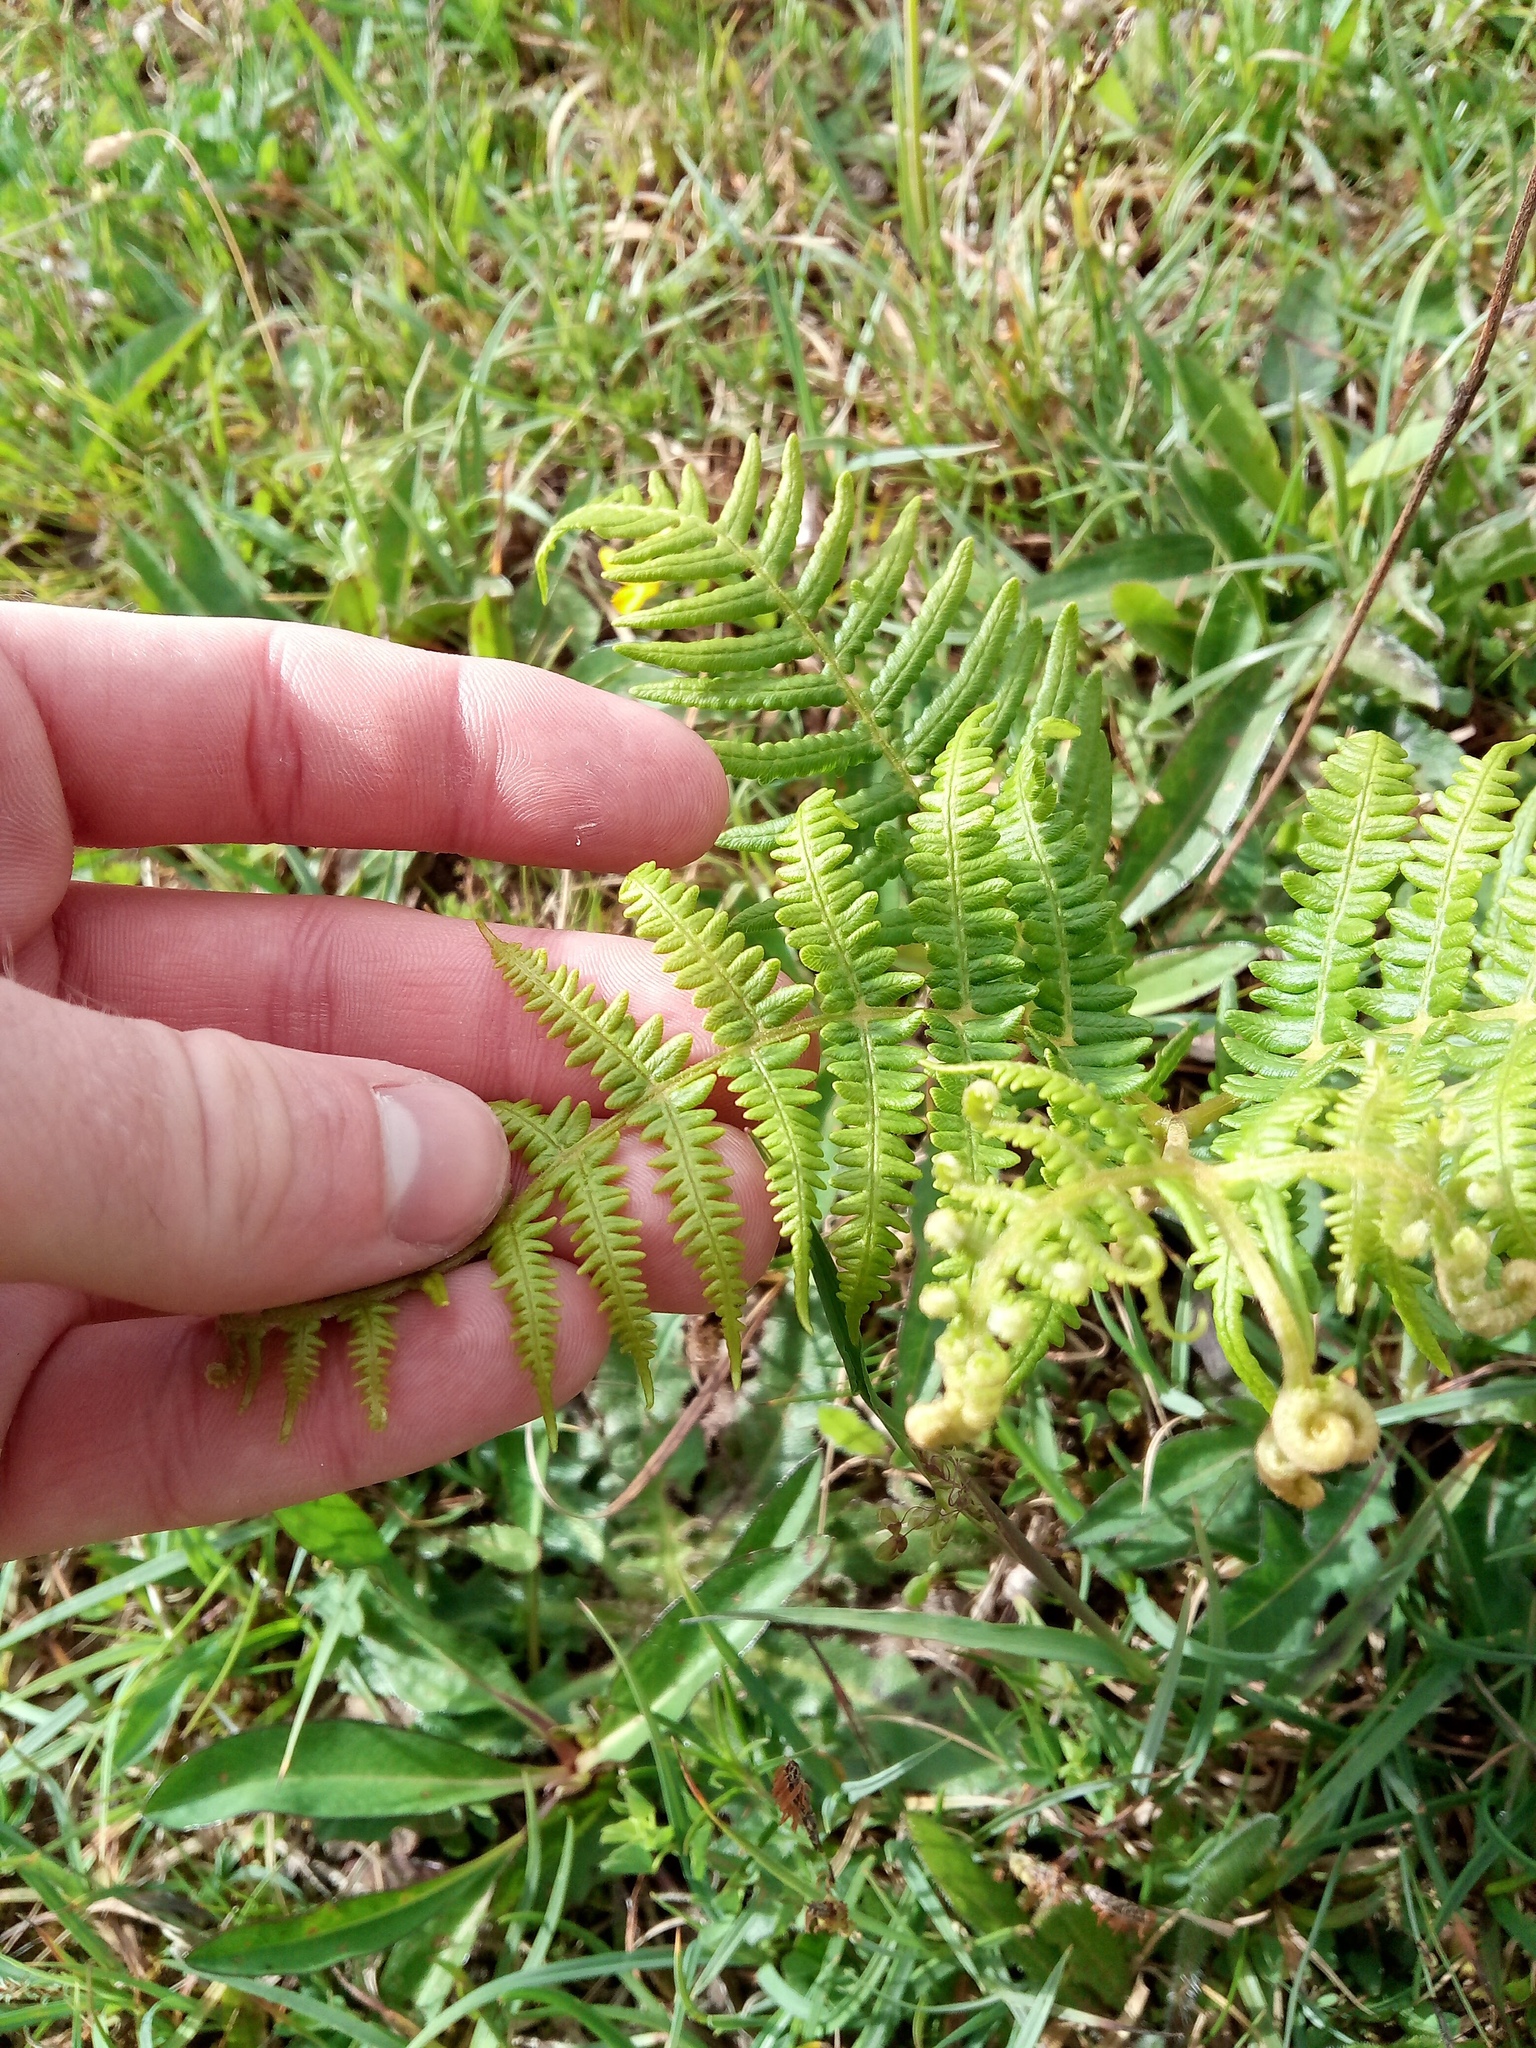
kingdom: Plantae
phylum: Tracheophyta
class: Polypodiopsida
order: Polypodiales
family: Dennstaedtiaceae
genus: Pteridium
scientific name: Pteridium aquilinum
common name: Bracken
